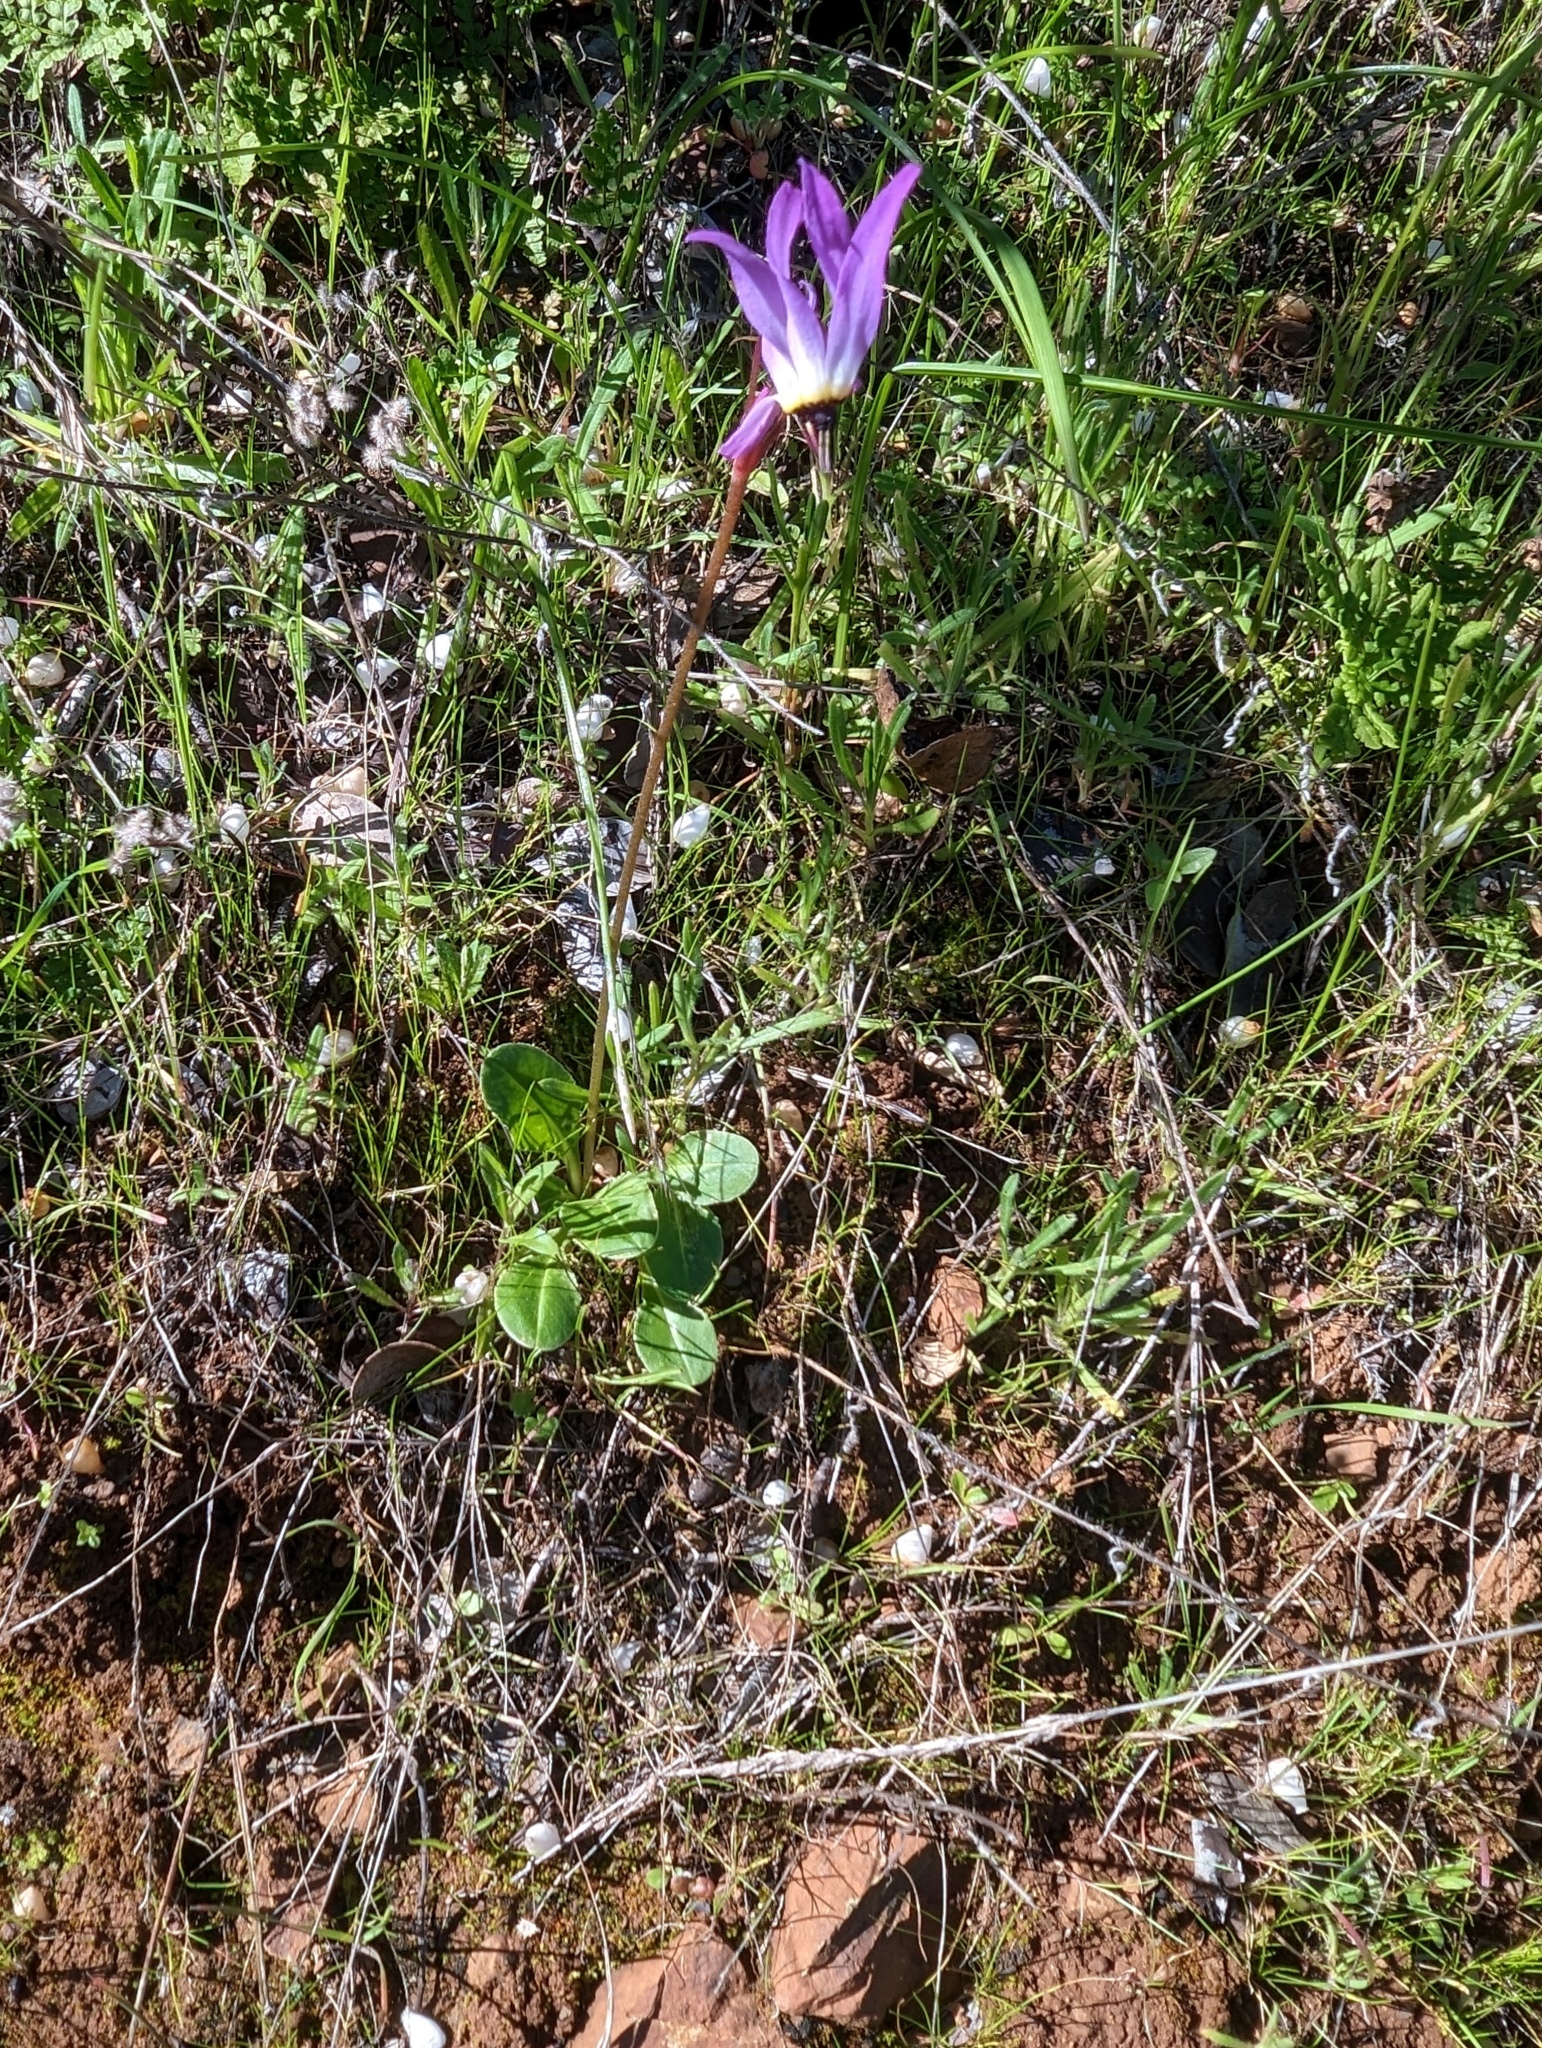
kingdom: Plantae
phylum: Tracheophyta
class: Magnoliopsida
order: Ericales
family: Primulaceae
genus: Dodecatheon
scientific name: Dodecatheon hendersonii
